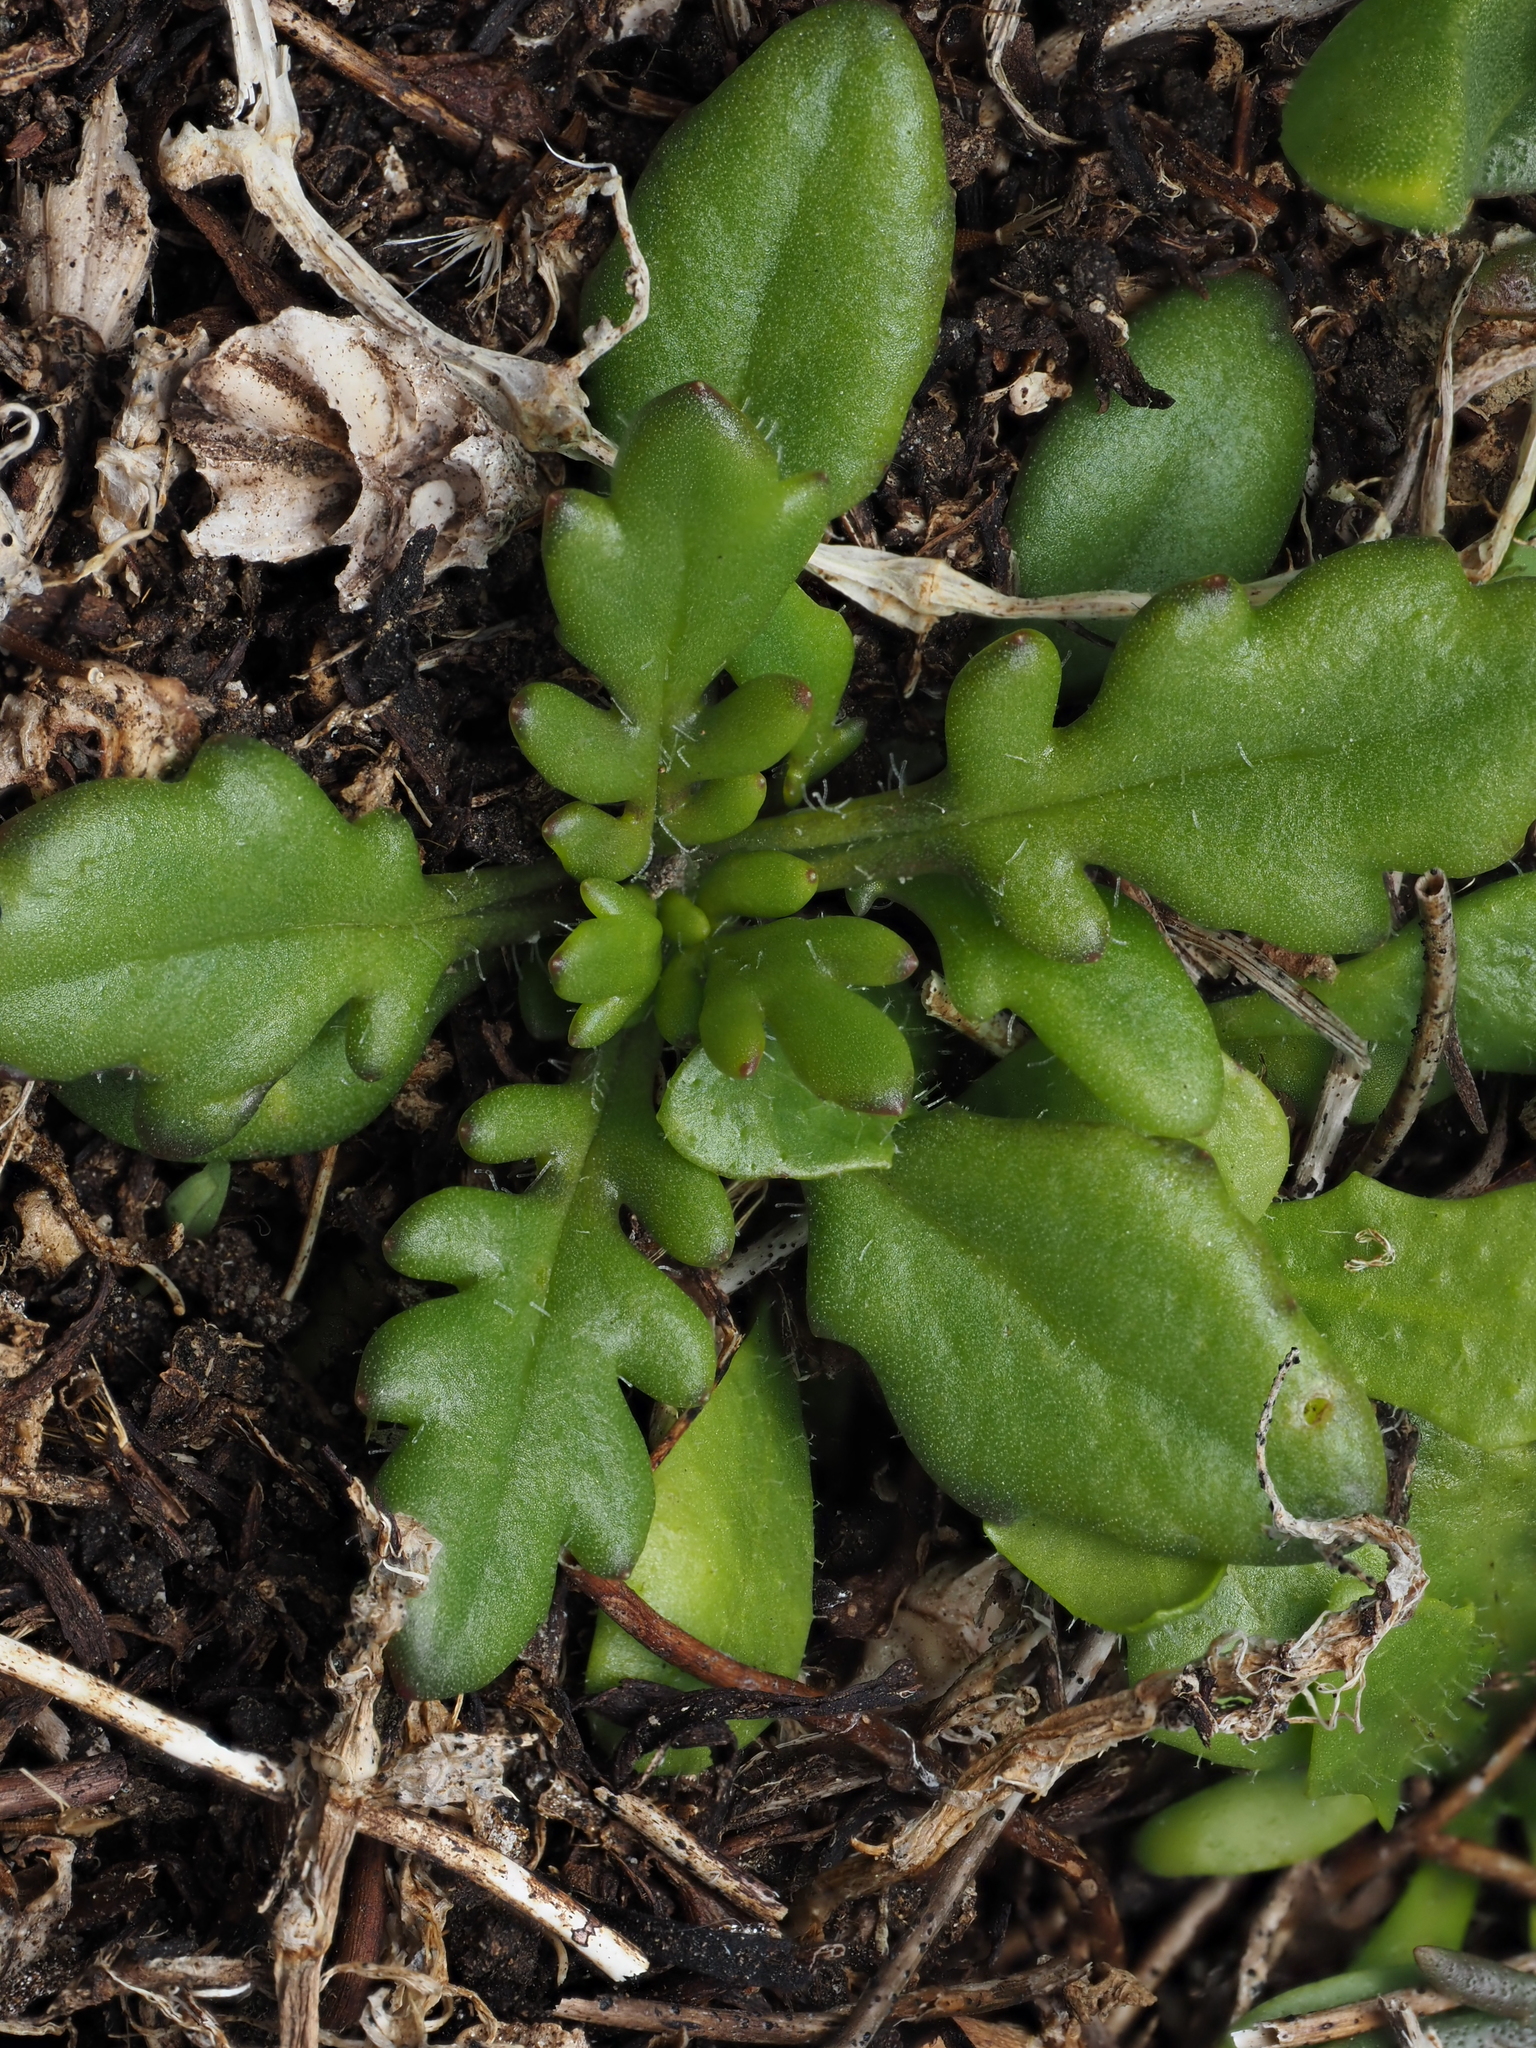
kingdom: Plantae
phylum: Tracheophyta
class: Magnoliopsida
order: Asterales
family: Asteraceae
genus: Senecio
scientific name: Senecio lautus
